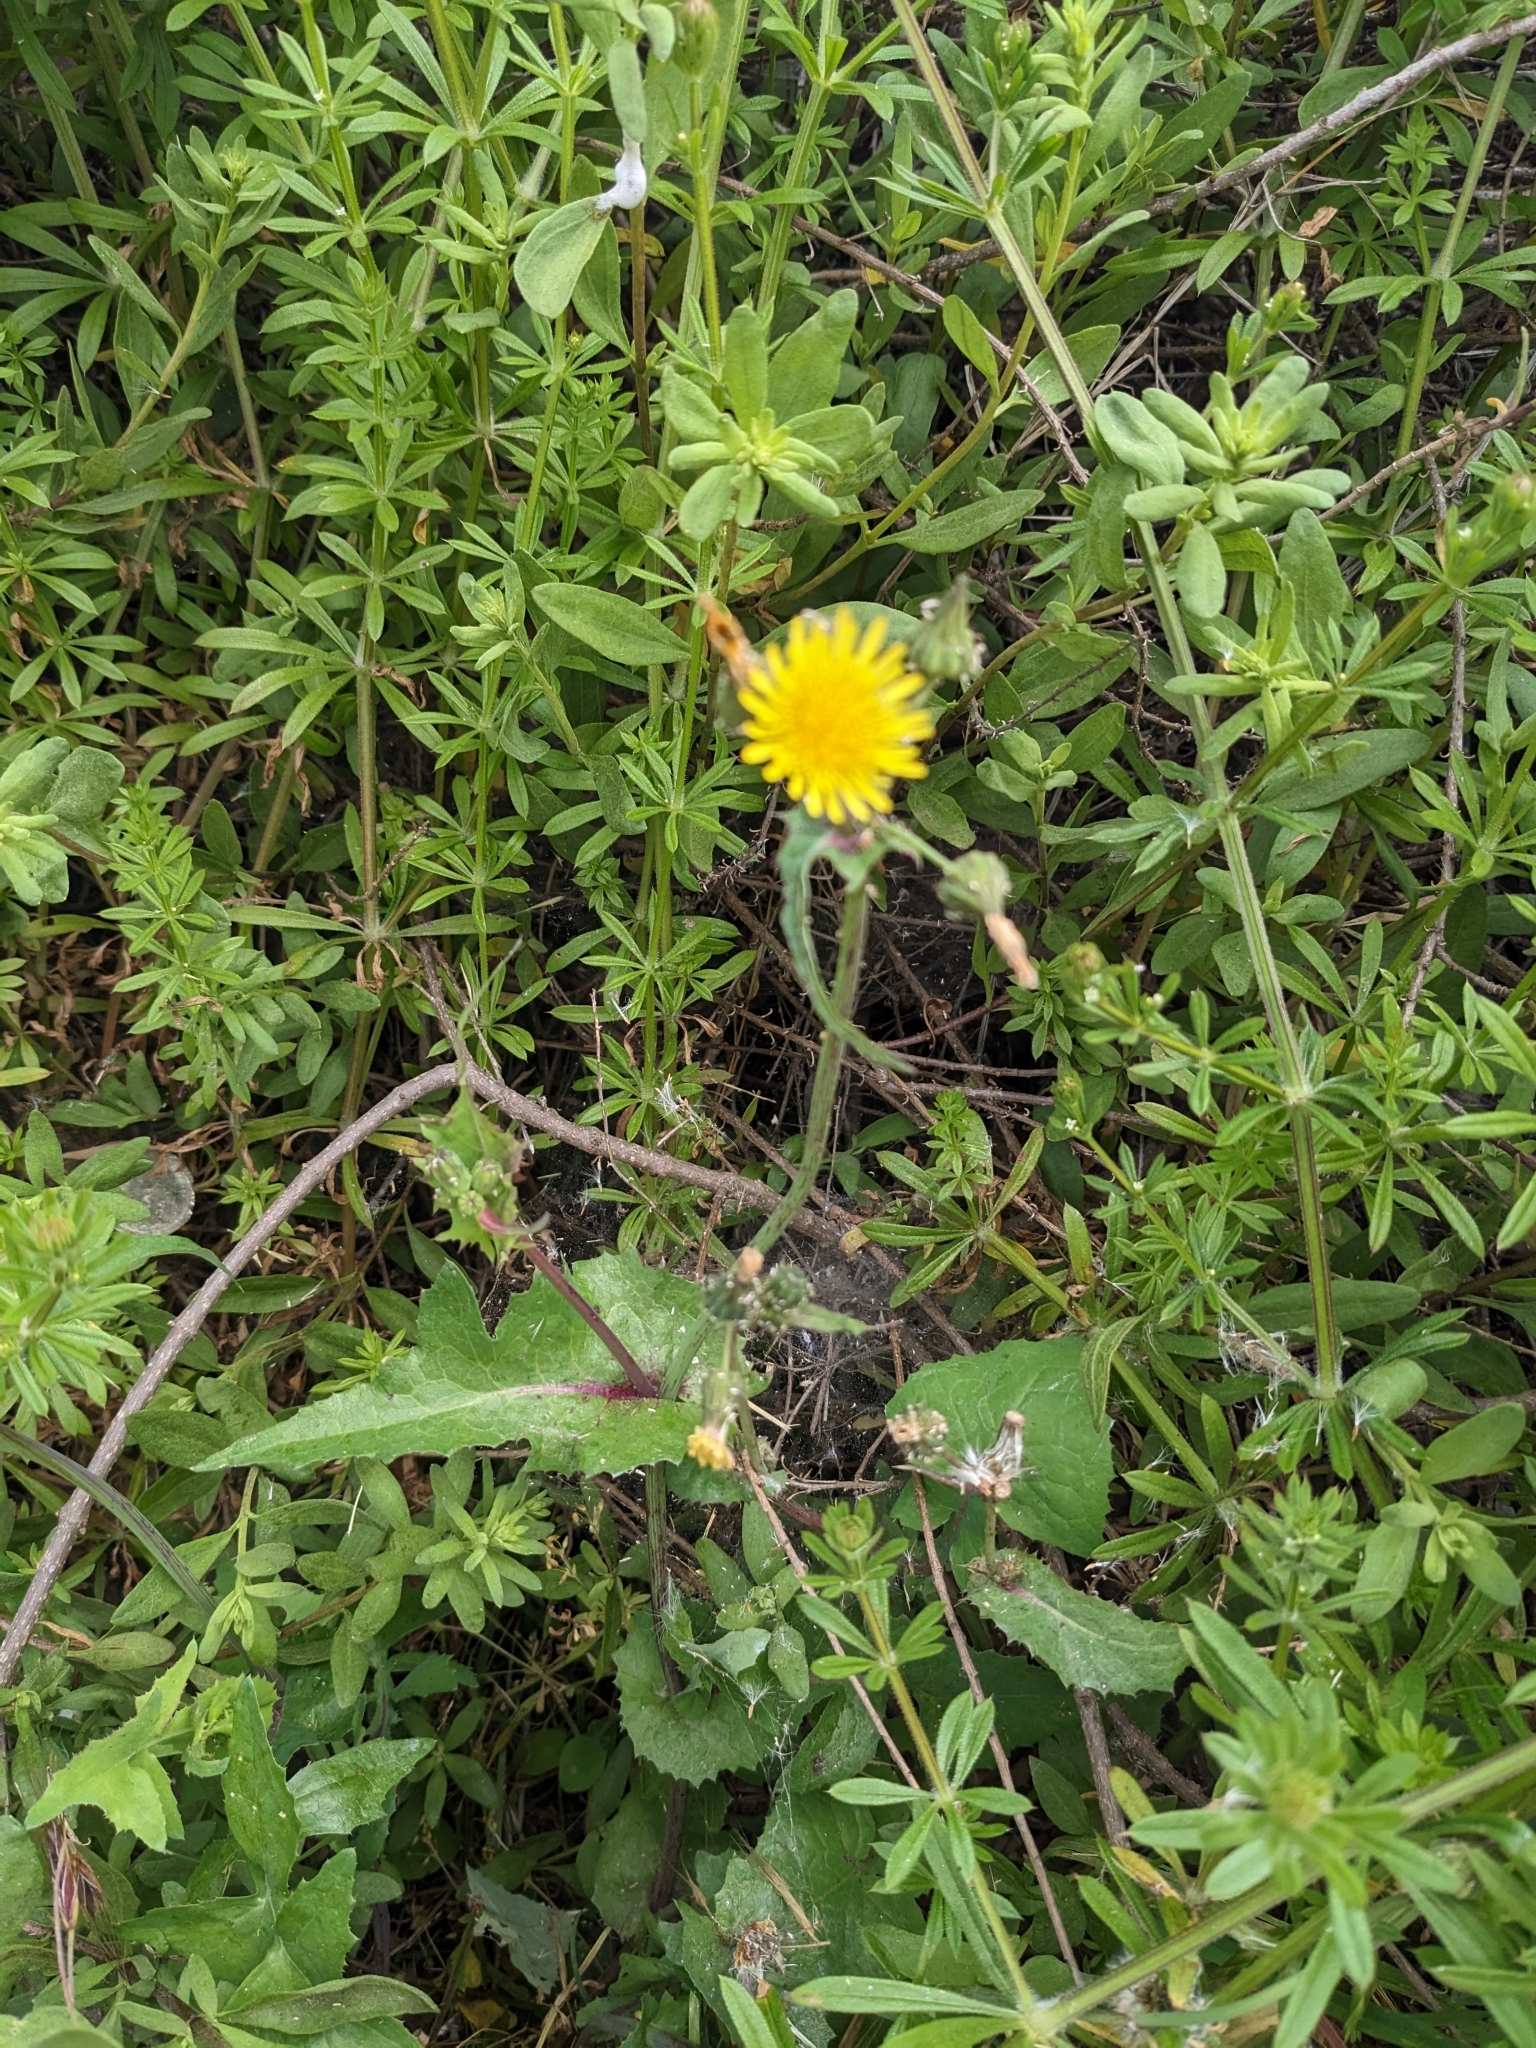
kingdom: Plantae
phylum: Tracheophyta
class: Magnoliopsida
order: Asterales
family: Asteraceae
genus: Sonchus
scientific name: Sonchus oleraceus
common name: Common sowthistle
